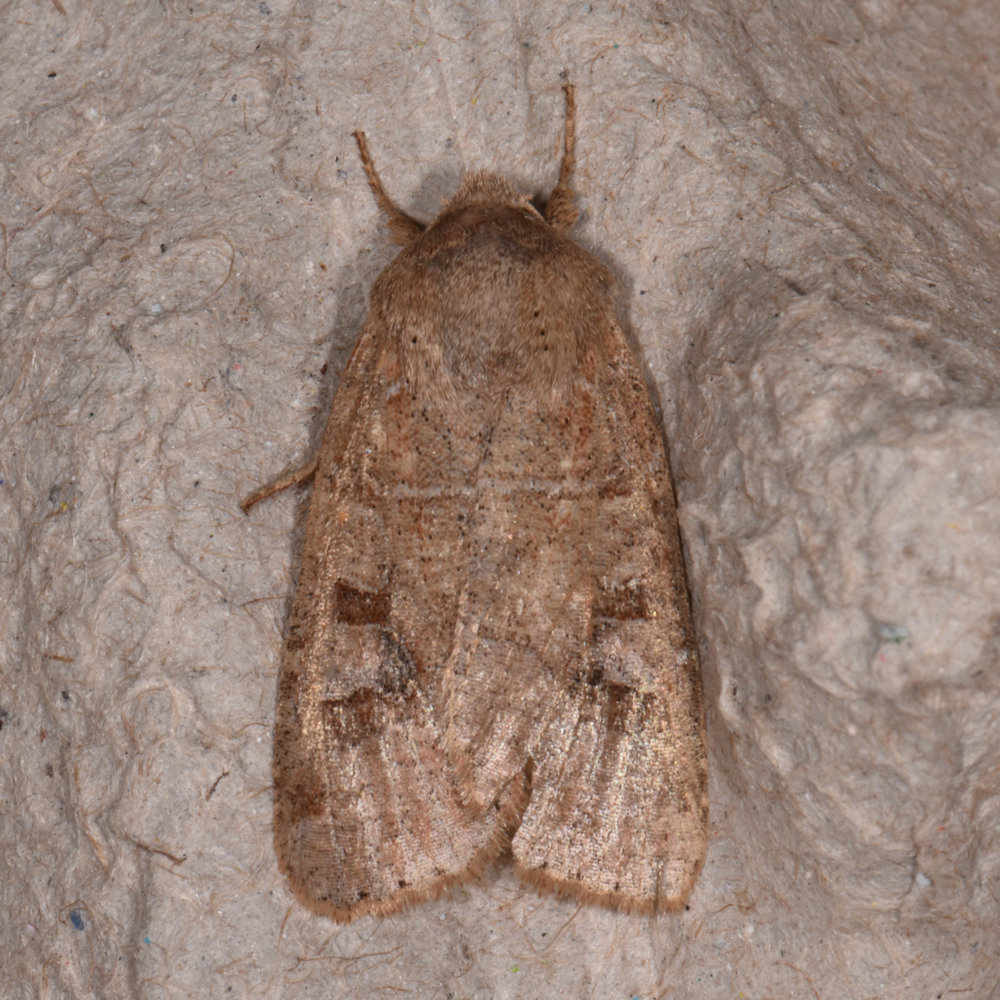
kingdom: Animalia
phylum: Arthropoda
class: Insecta
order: Lepidoptera
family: Noctuidae
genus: Crocigrapha
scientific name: Crocigrapha normani
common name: Norman's quaker
